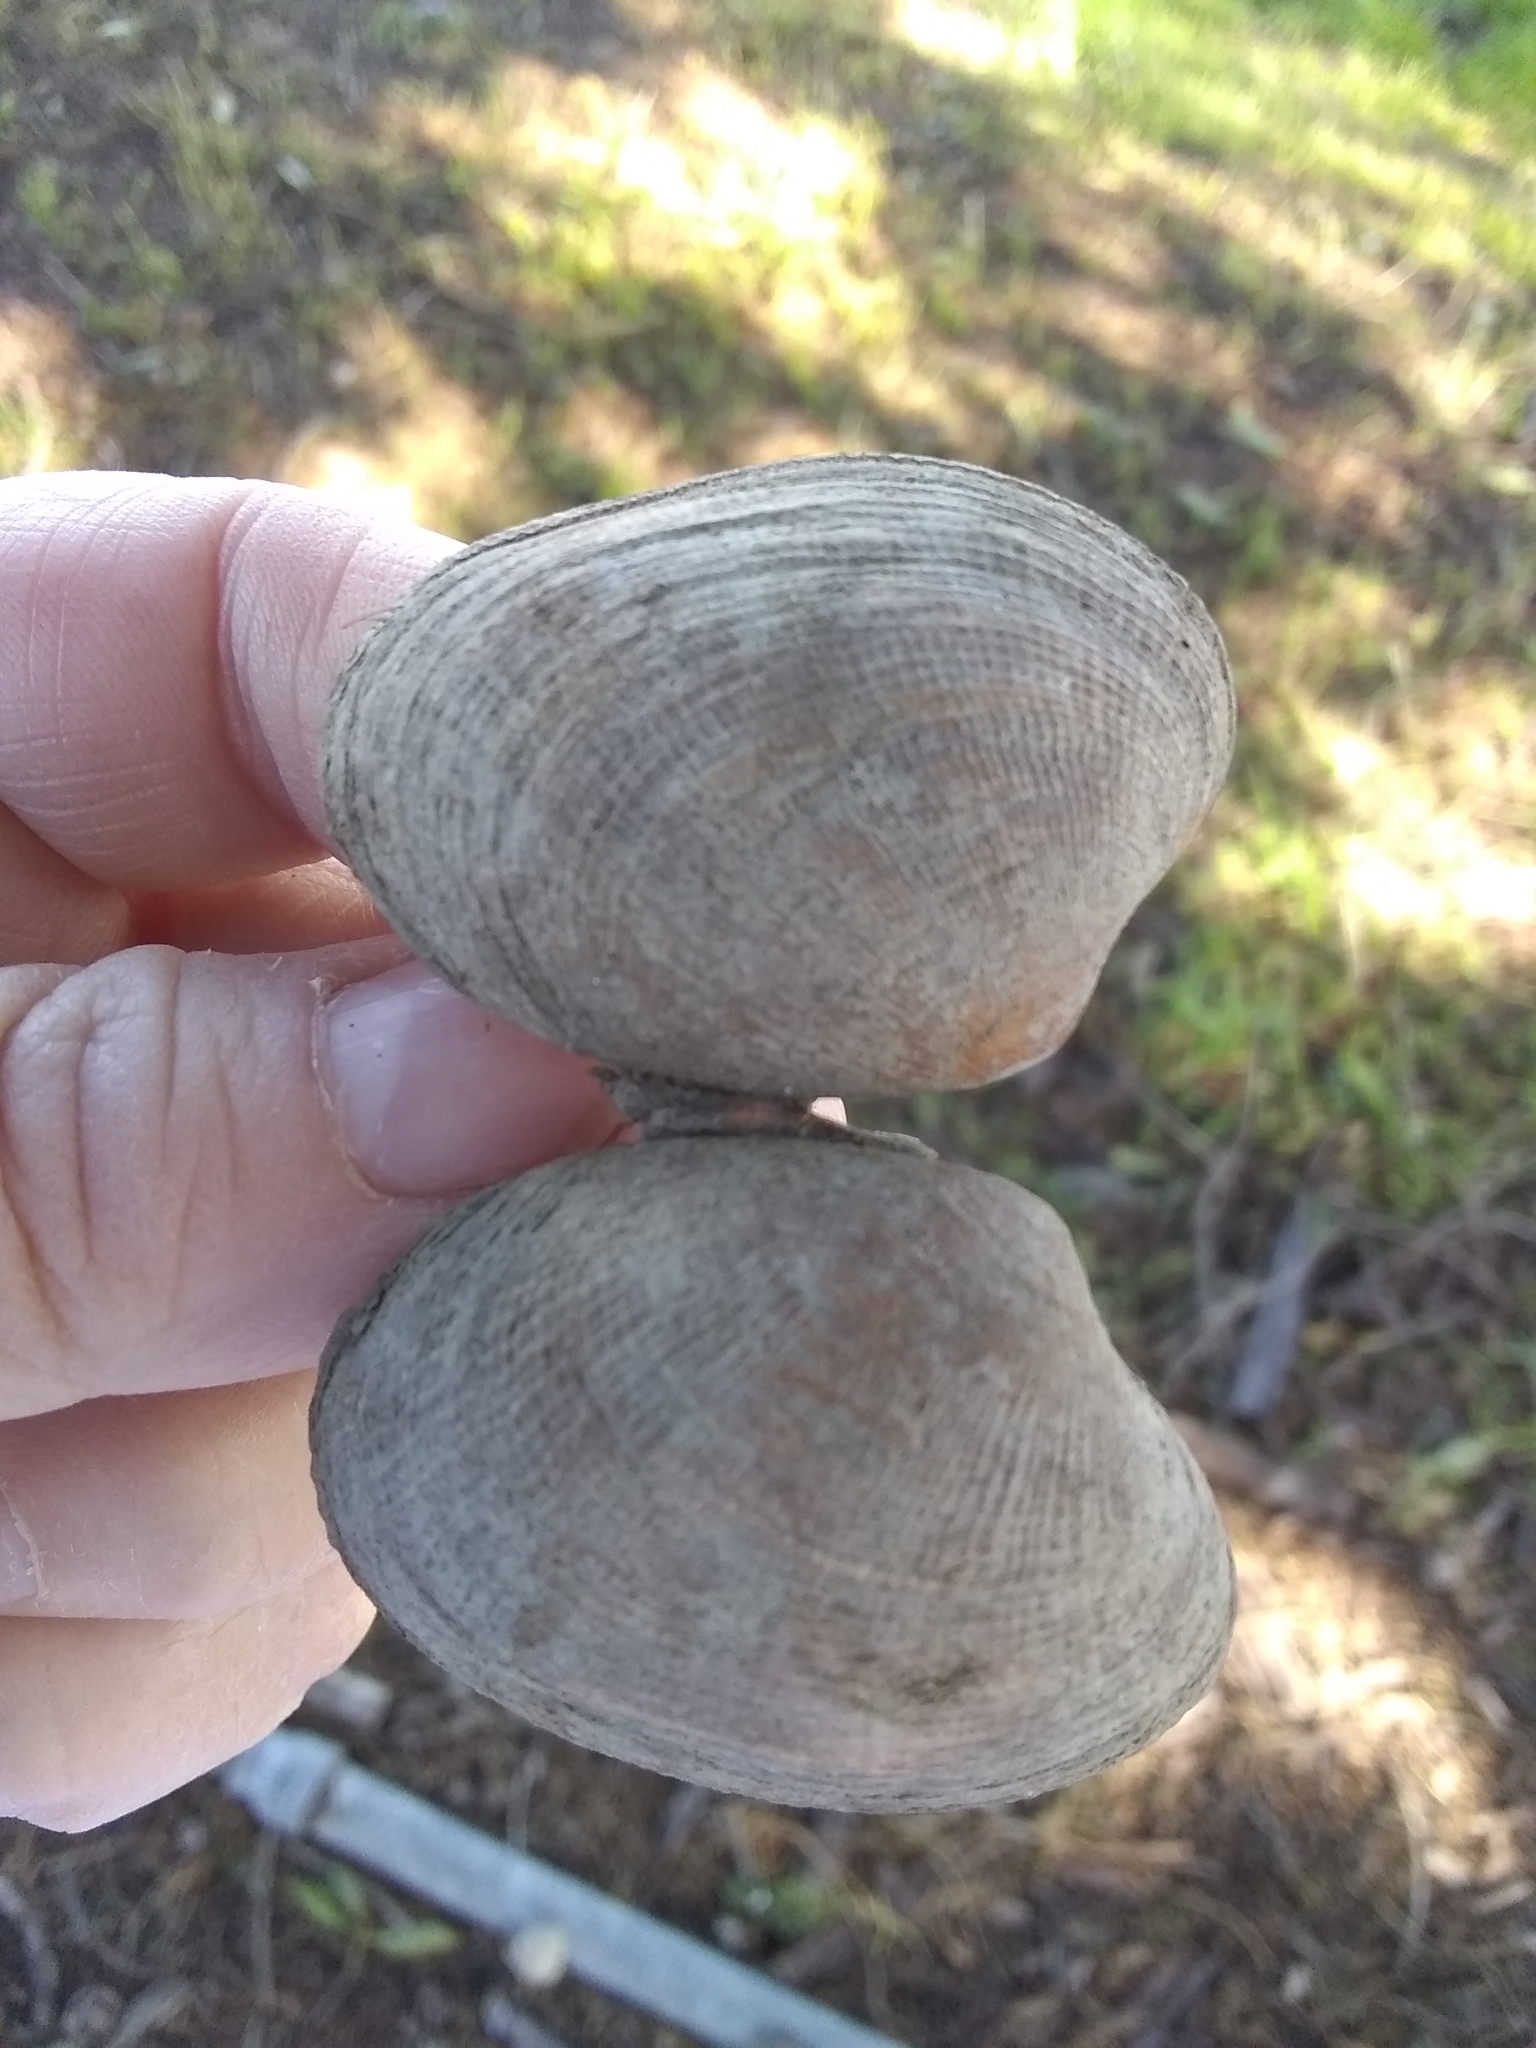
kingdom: Animalia
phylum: Mollusca
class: Bivalvia
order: Venerida
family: Veneridae
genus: Ruditapes
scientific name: Ruditapes philippinarum
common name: Manila clam
